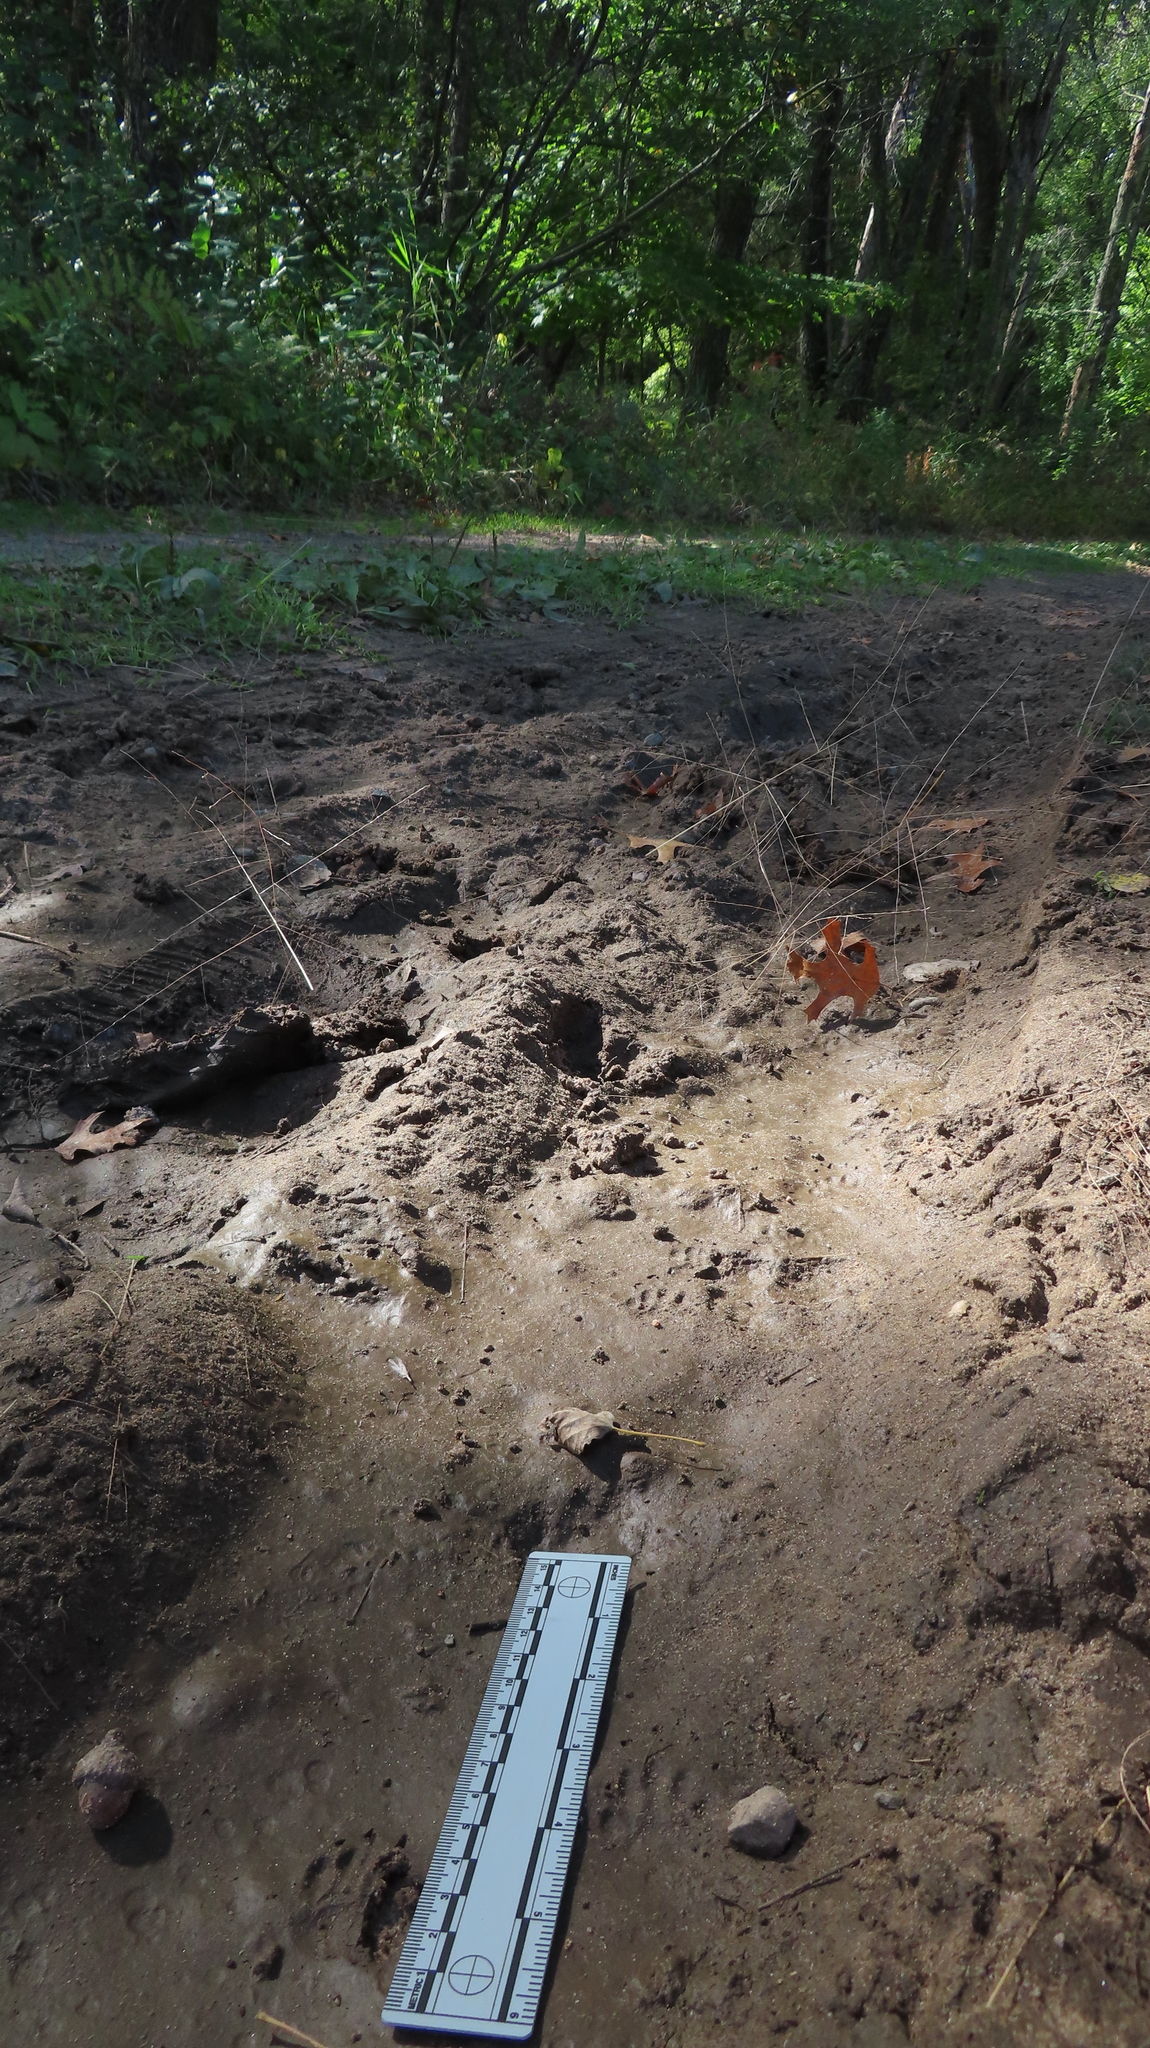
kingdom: Animalia
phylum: Chordata
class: Mammalia
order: Carnivora
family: Mephitidae
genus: Mephitis
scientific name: Mephitis mephitis
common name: Striped skunk
